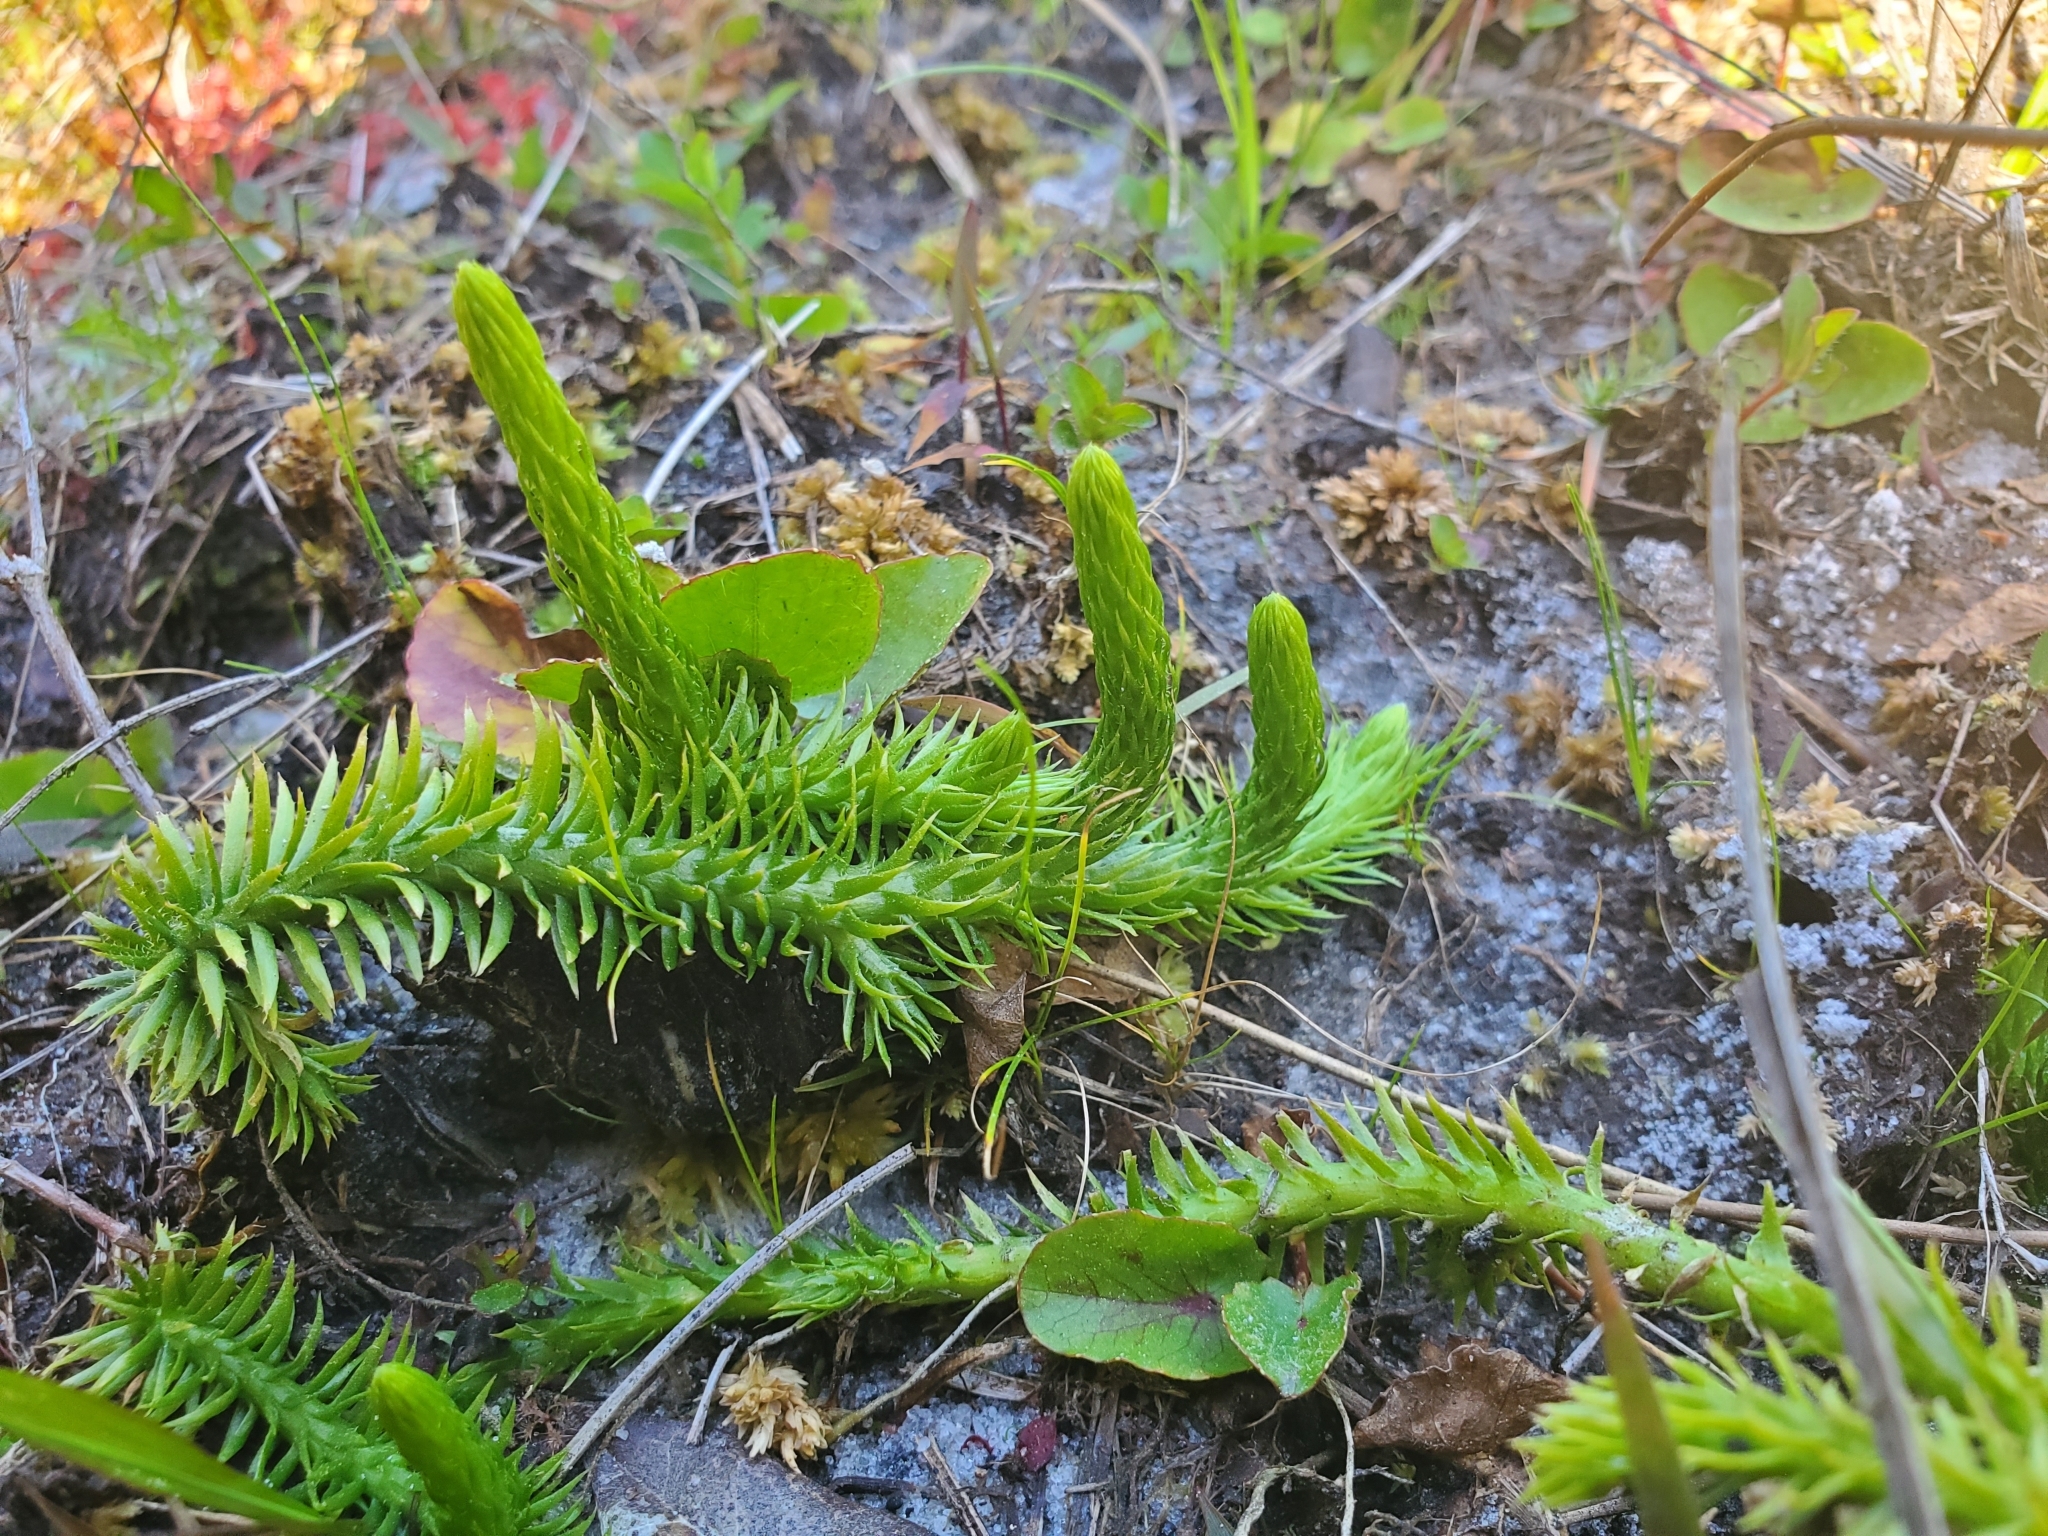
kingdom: Plantae
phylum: Tracheophyta
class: Lycopodiopsida
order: Lycopodiales
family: Lycopodiaceae
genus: Lycopodiella
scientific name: Lycopodiella appressa
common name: Appressed bog clubmoss
